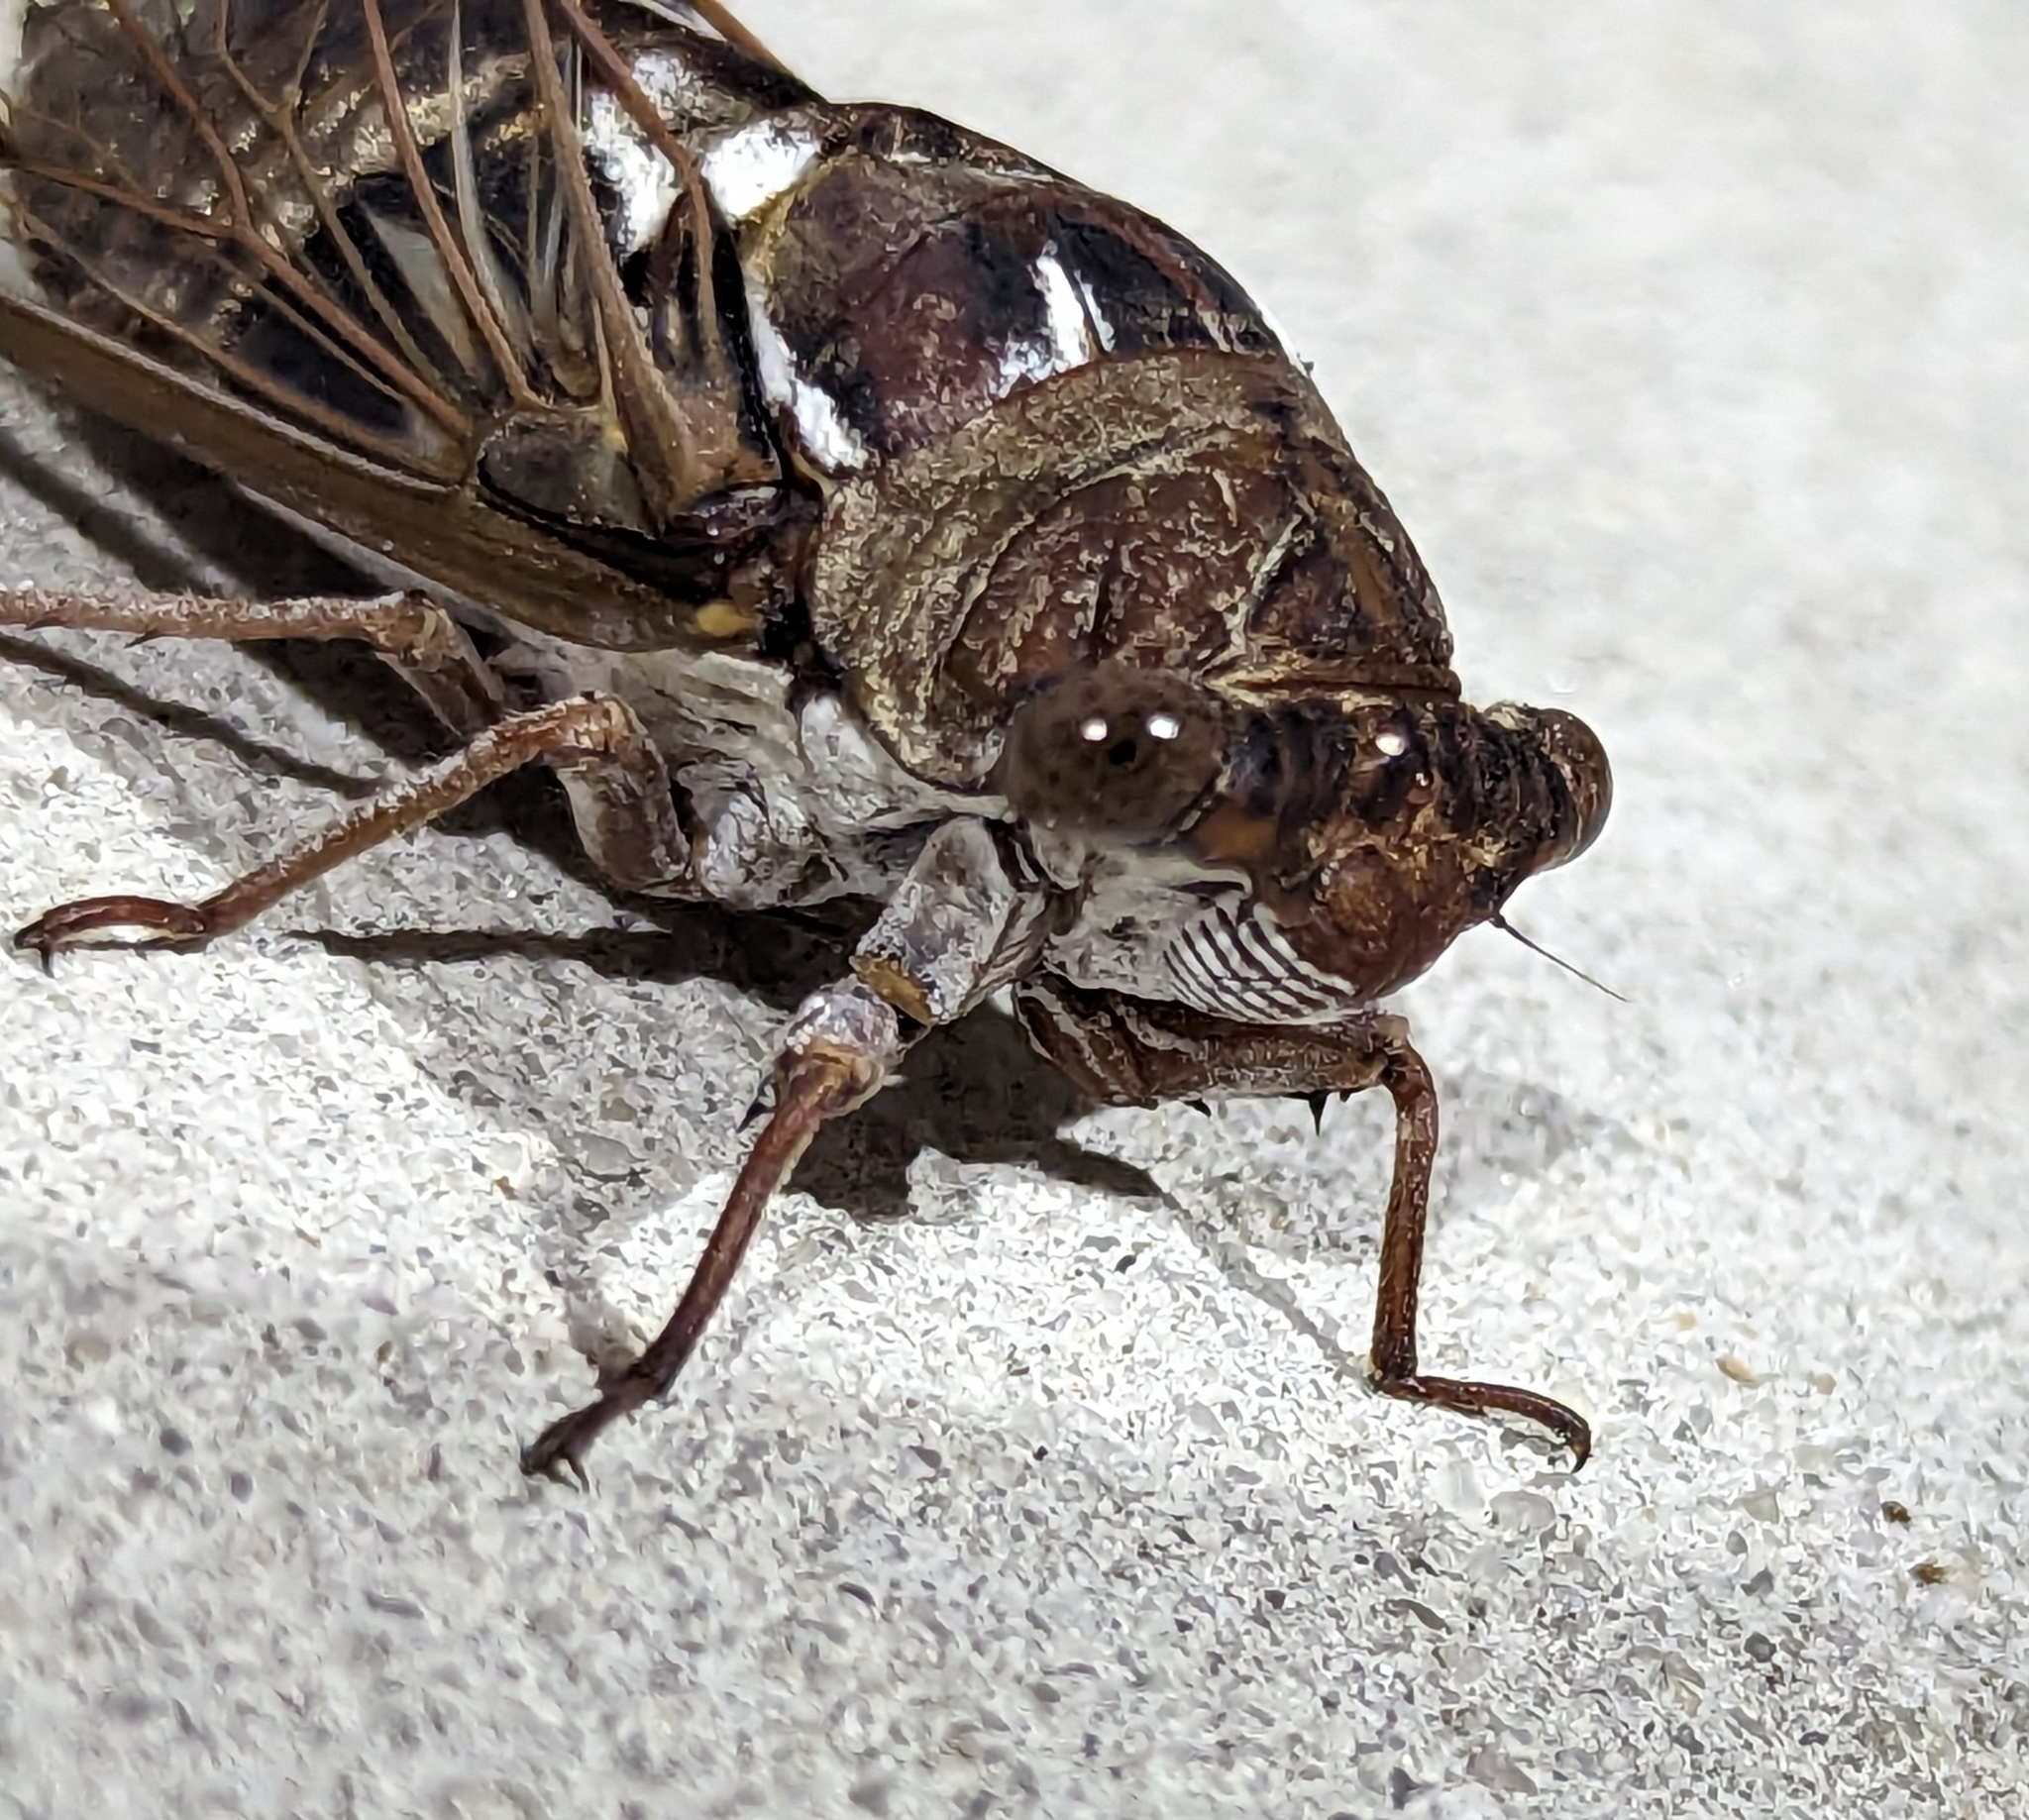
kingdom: Animalia
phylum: Arthropoda
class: Insecta
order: Hemiptera
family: Cicadidae
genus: Megatibicen
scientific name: Megatibicen resonans
